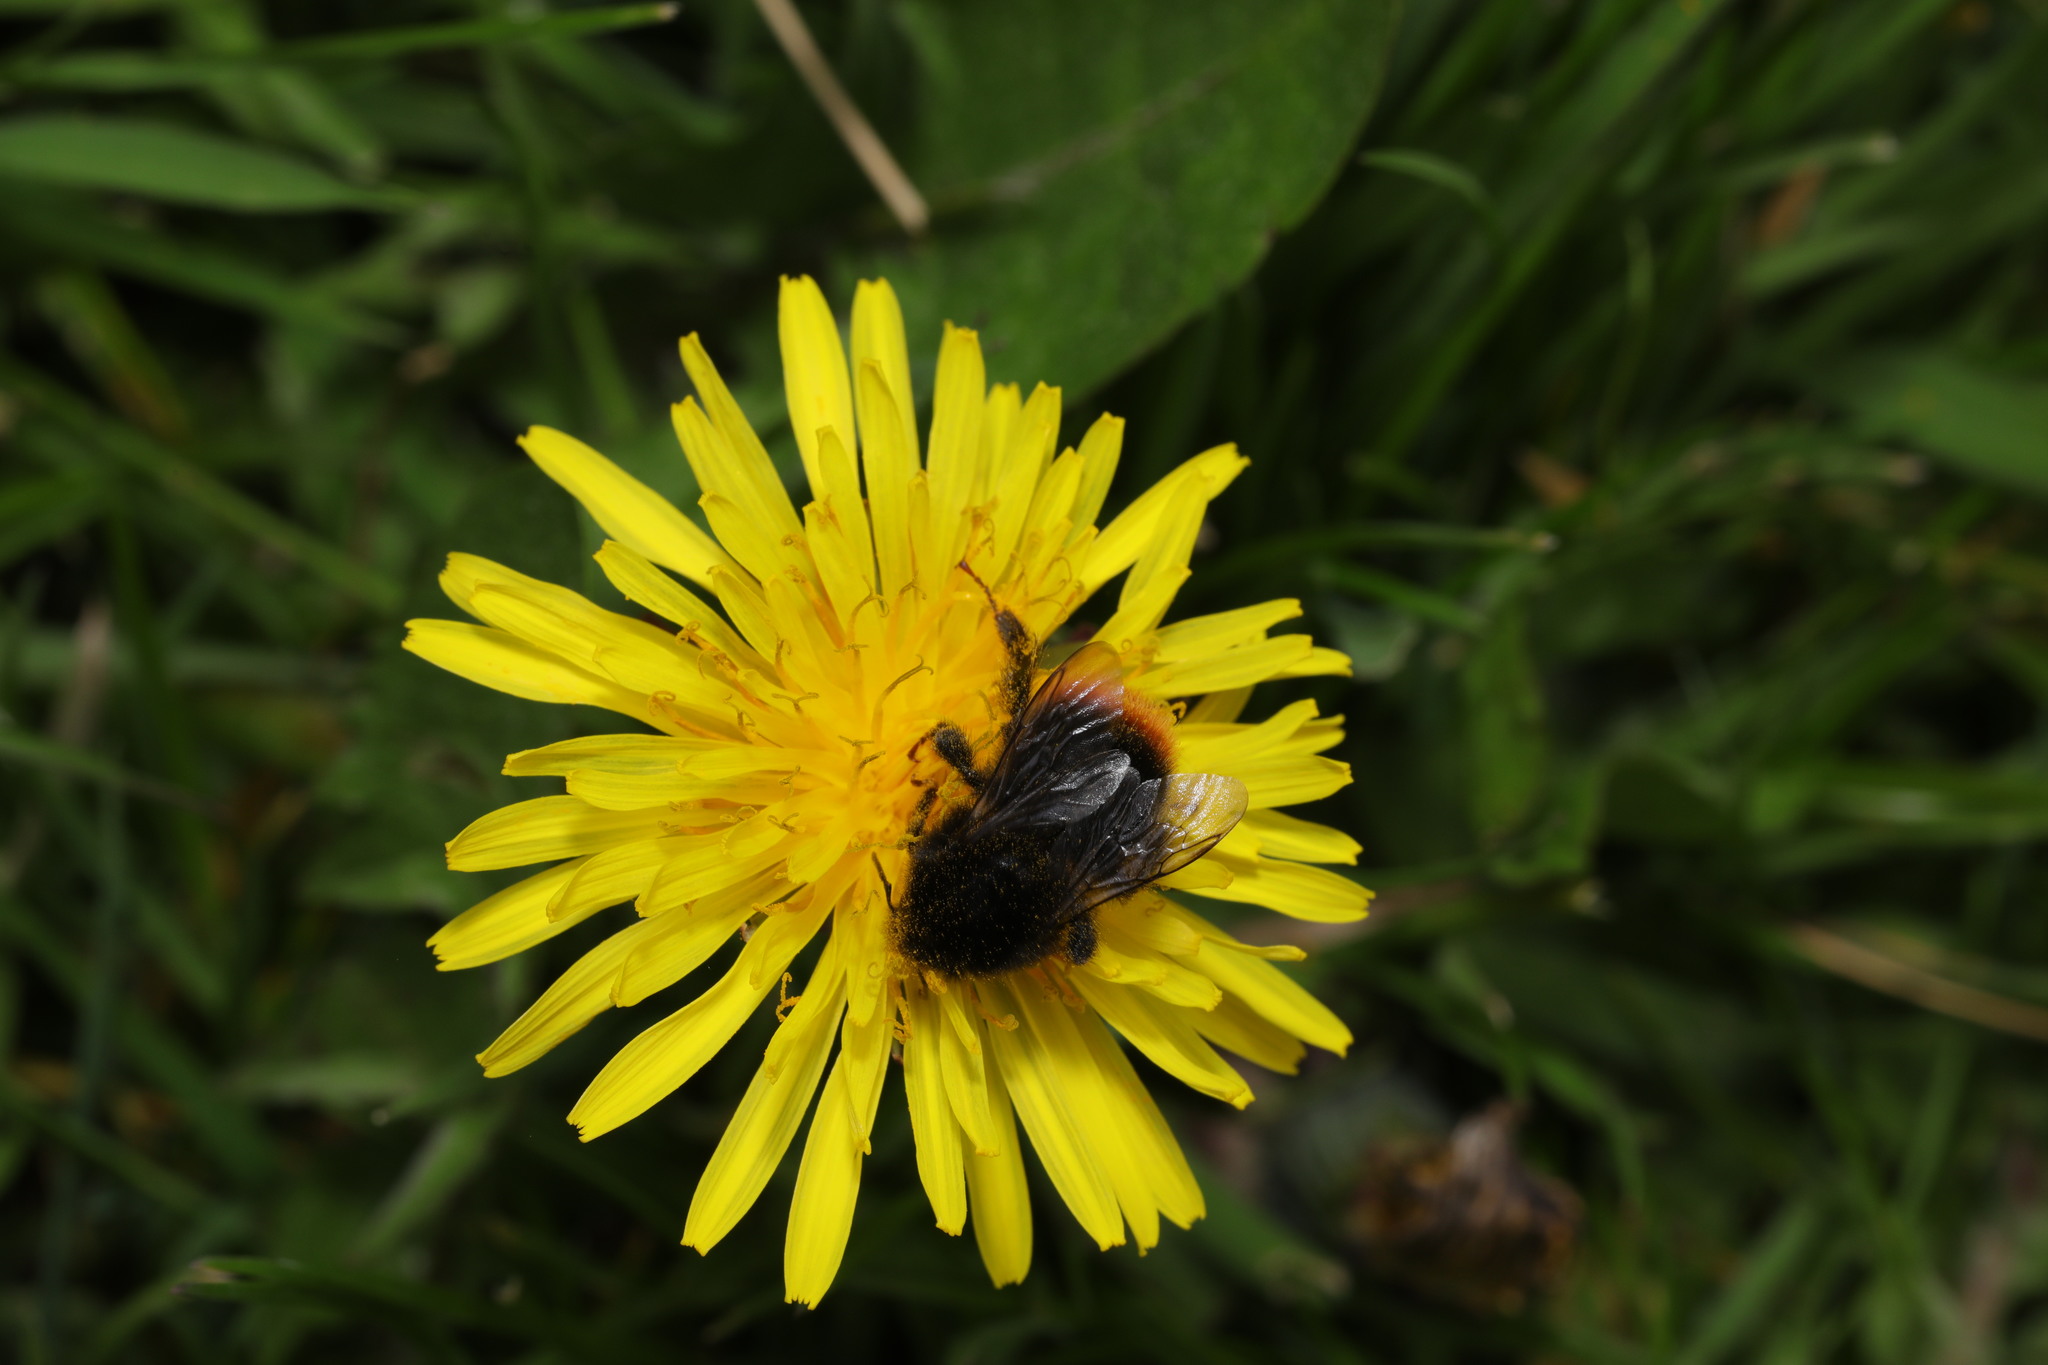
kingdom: Animalia
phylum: Arthropoda
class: Insecta
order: Hymenoptera
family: Apidae
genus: Bombus
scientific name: Bombus lapidarius
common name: Large red-tailed humble-bee
